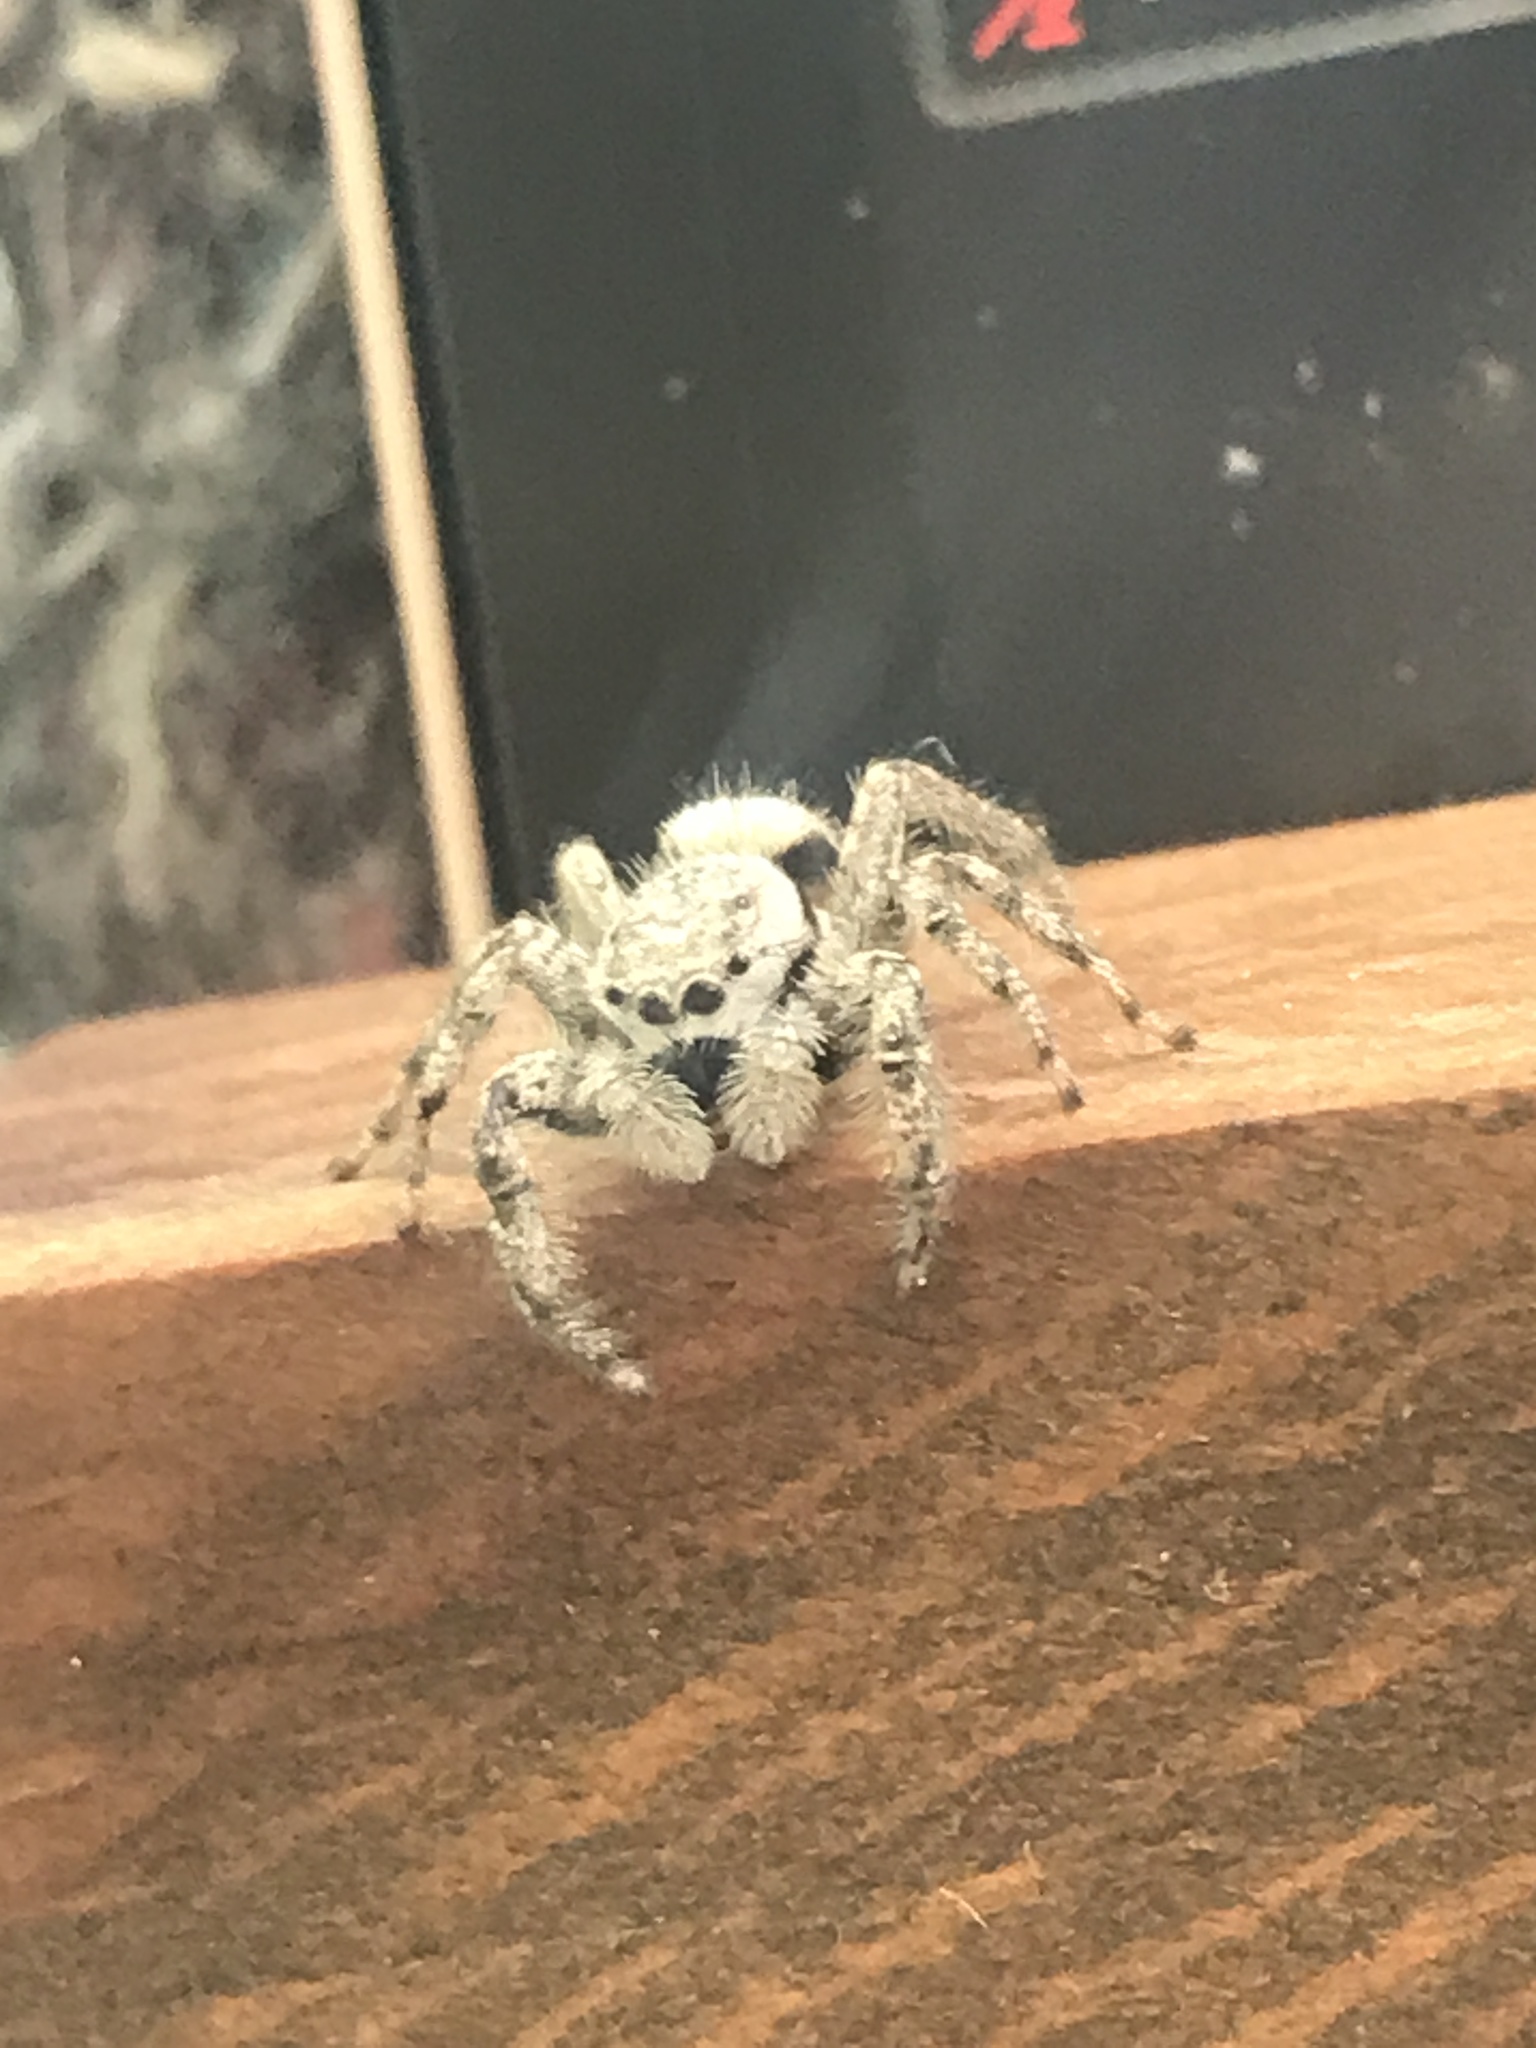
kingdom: Animalia
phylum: Arthropoda
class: Arachnida
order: Araneae
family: Salticidae
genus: Platycryptus
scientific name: Platycryptus undatus
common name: Tan jumping spider
